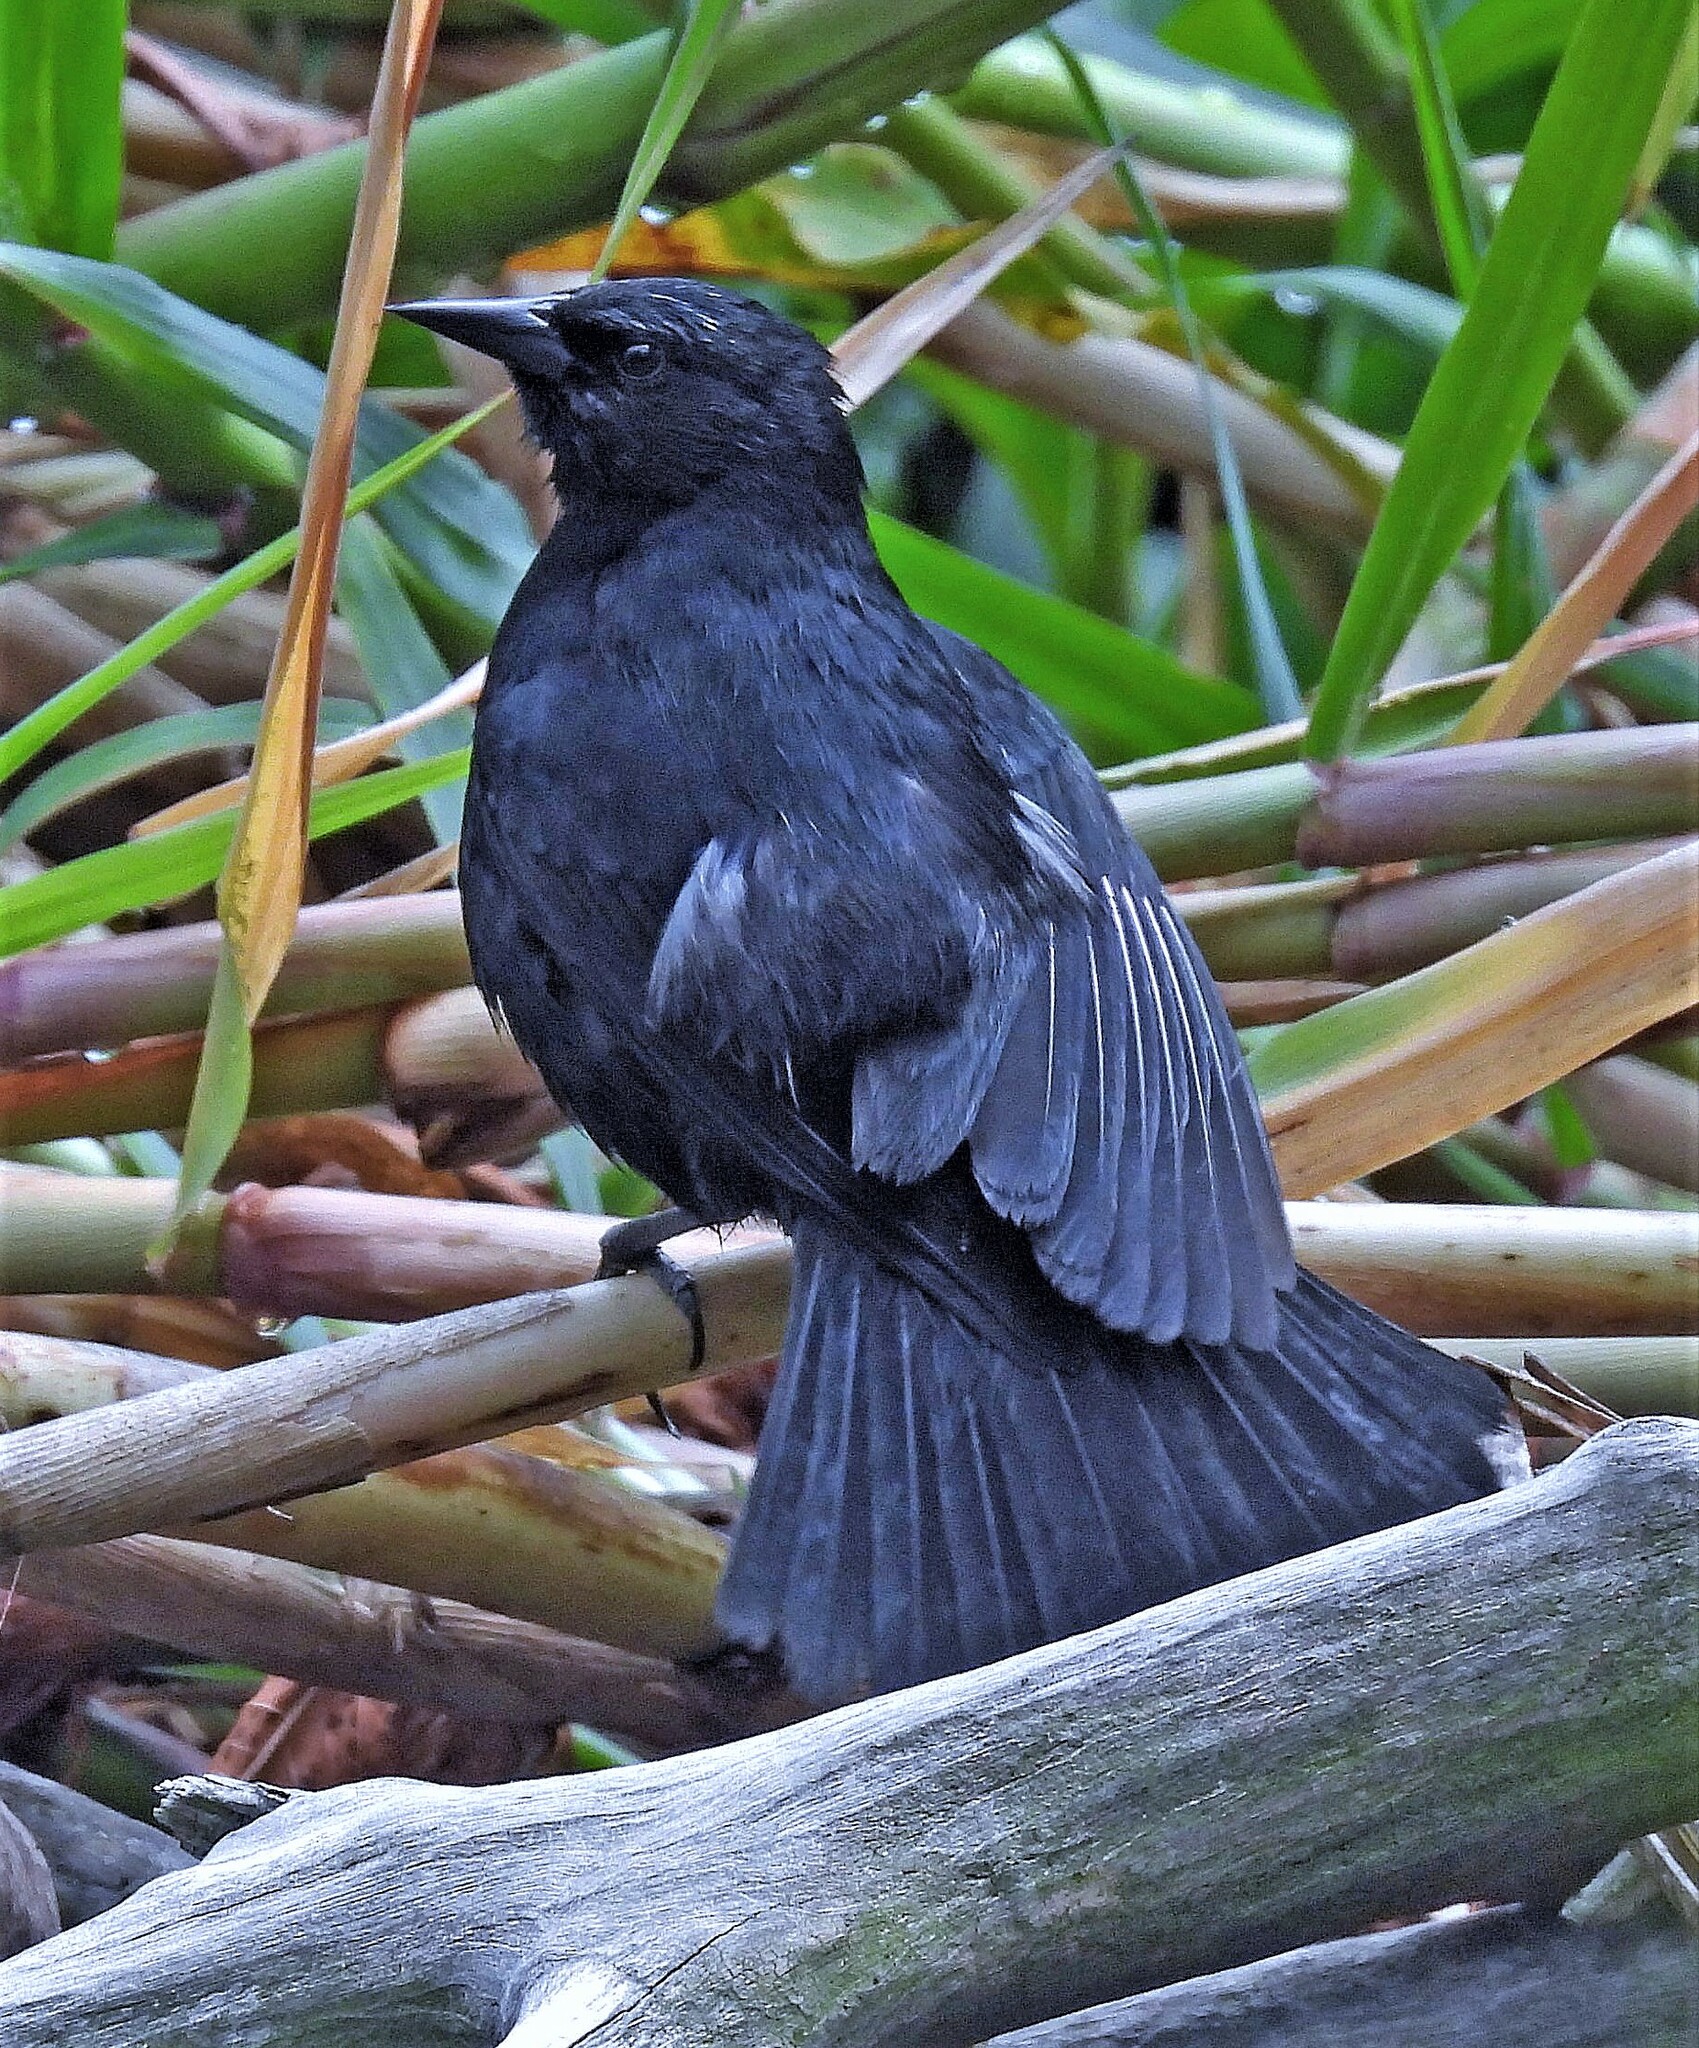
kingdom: Animalia
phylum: Chordata
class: Aves
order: Passeriformes
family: Icteridae
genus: Agelasticus
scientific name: Agelasticus cyanopus
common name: Unicolored blackbird
